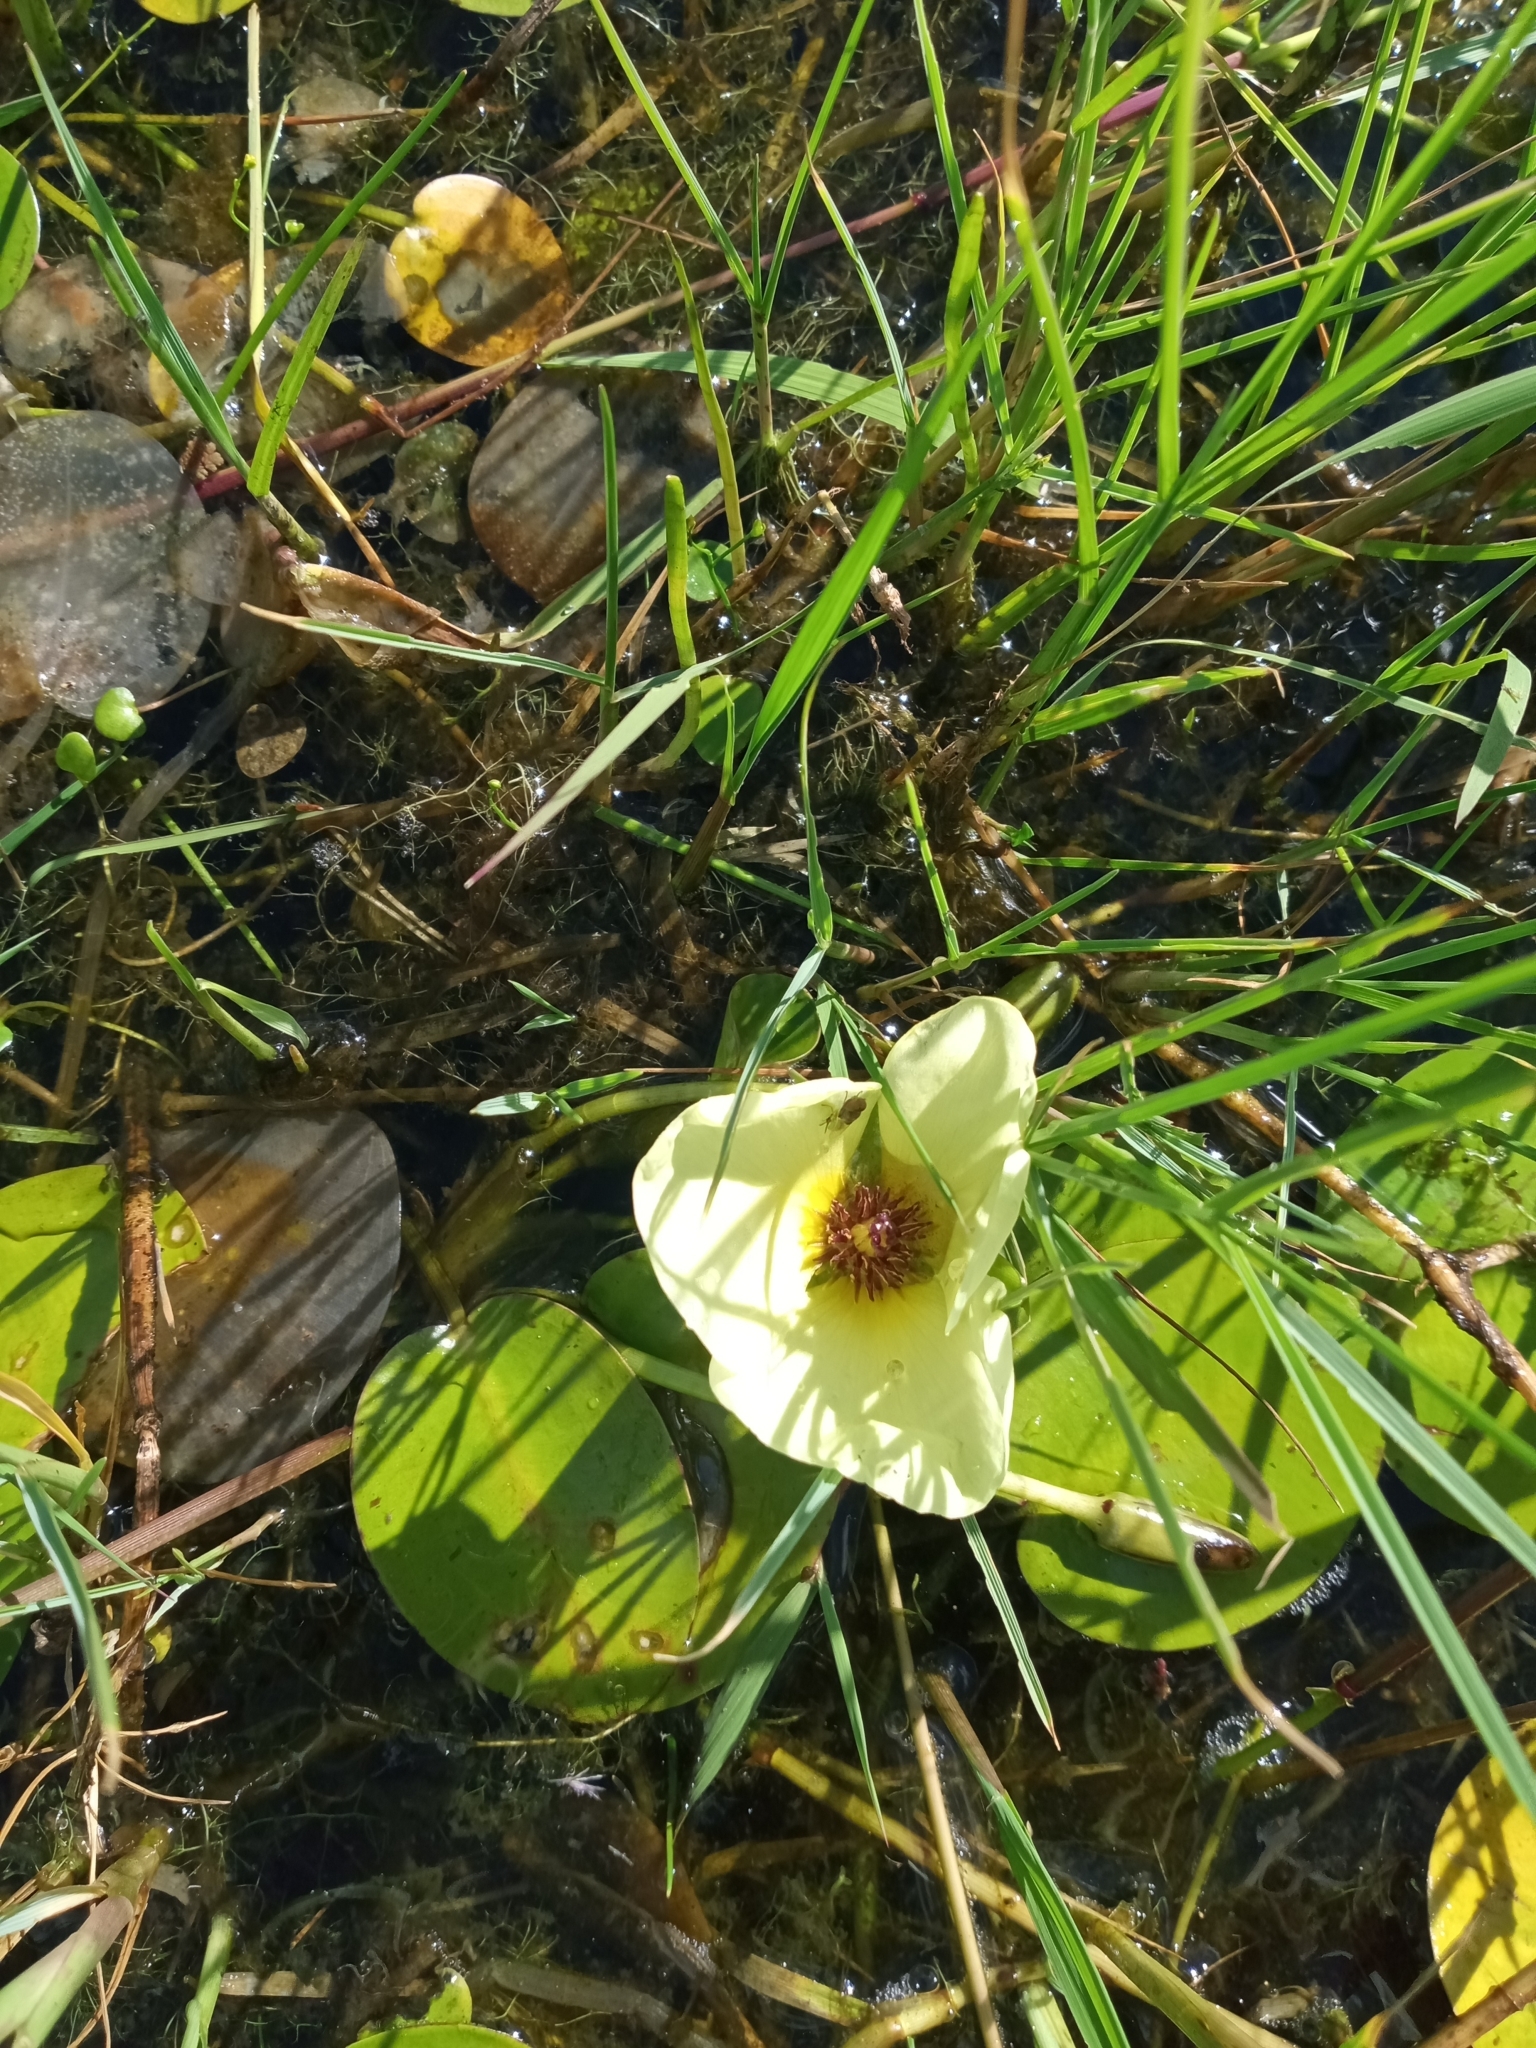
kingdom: Plantae
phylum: Tracheophyta
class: Liliopsida
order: Alismatales
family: Alismataceae
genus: Hydrocleys
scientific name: Hydrocleys nymphoides
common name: Water-poppy
